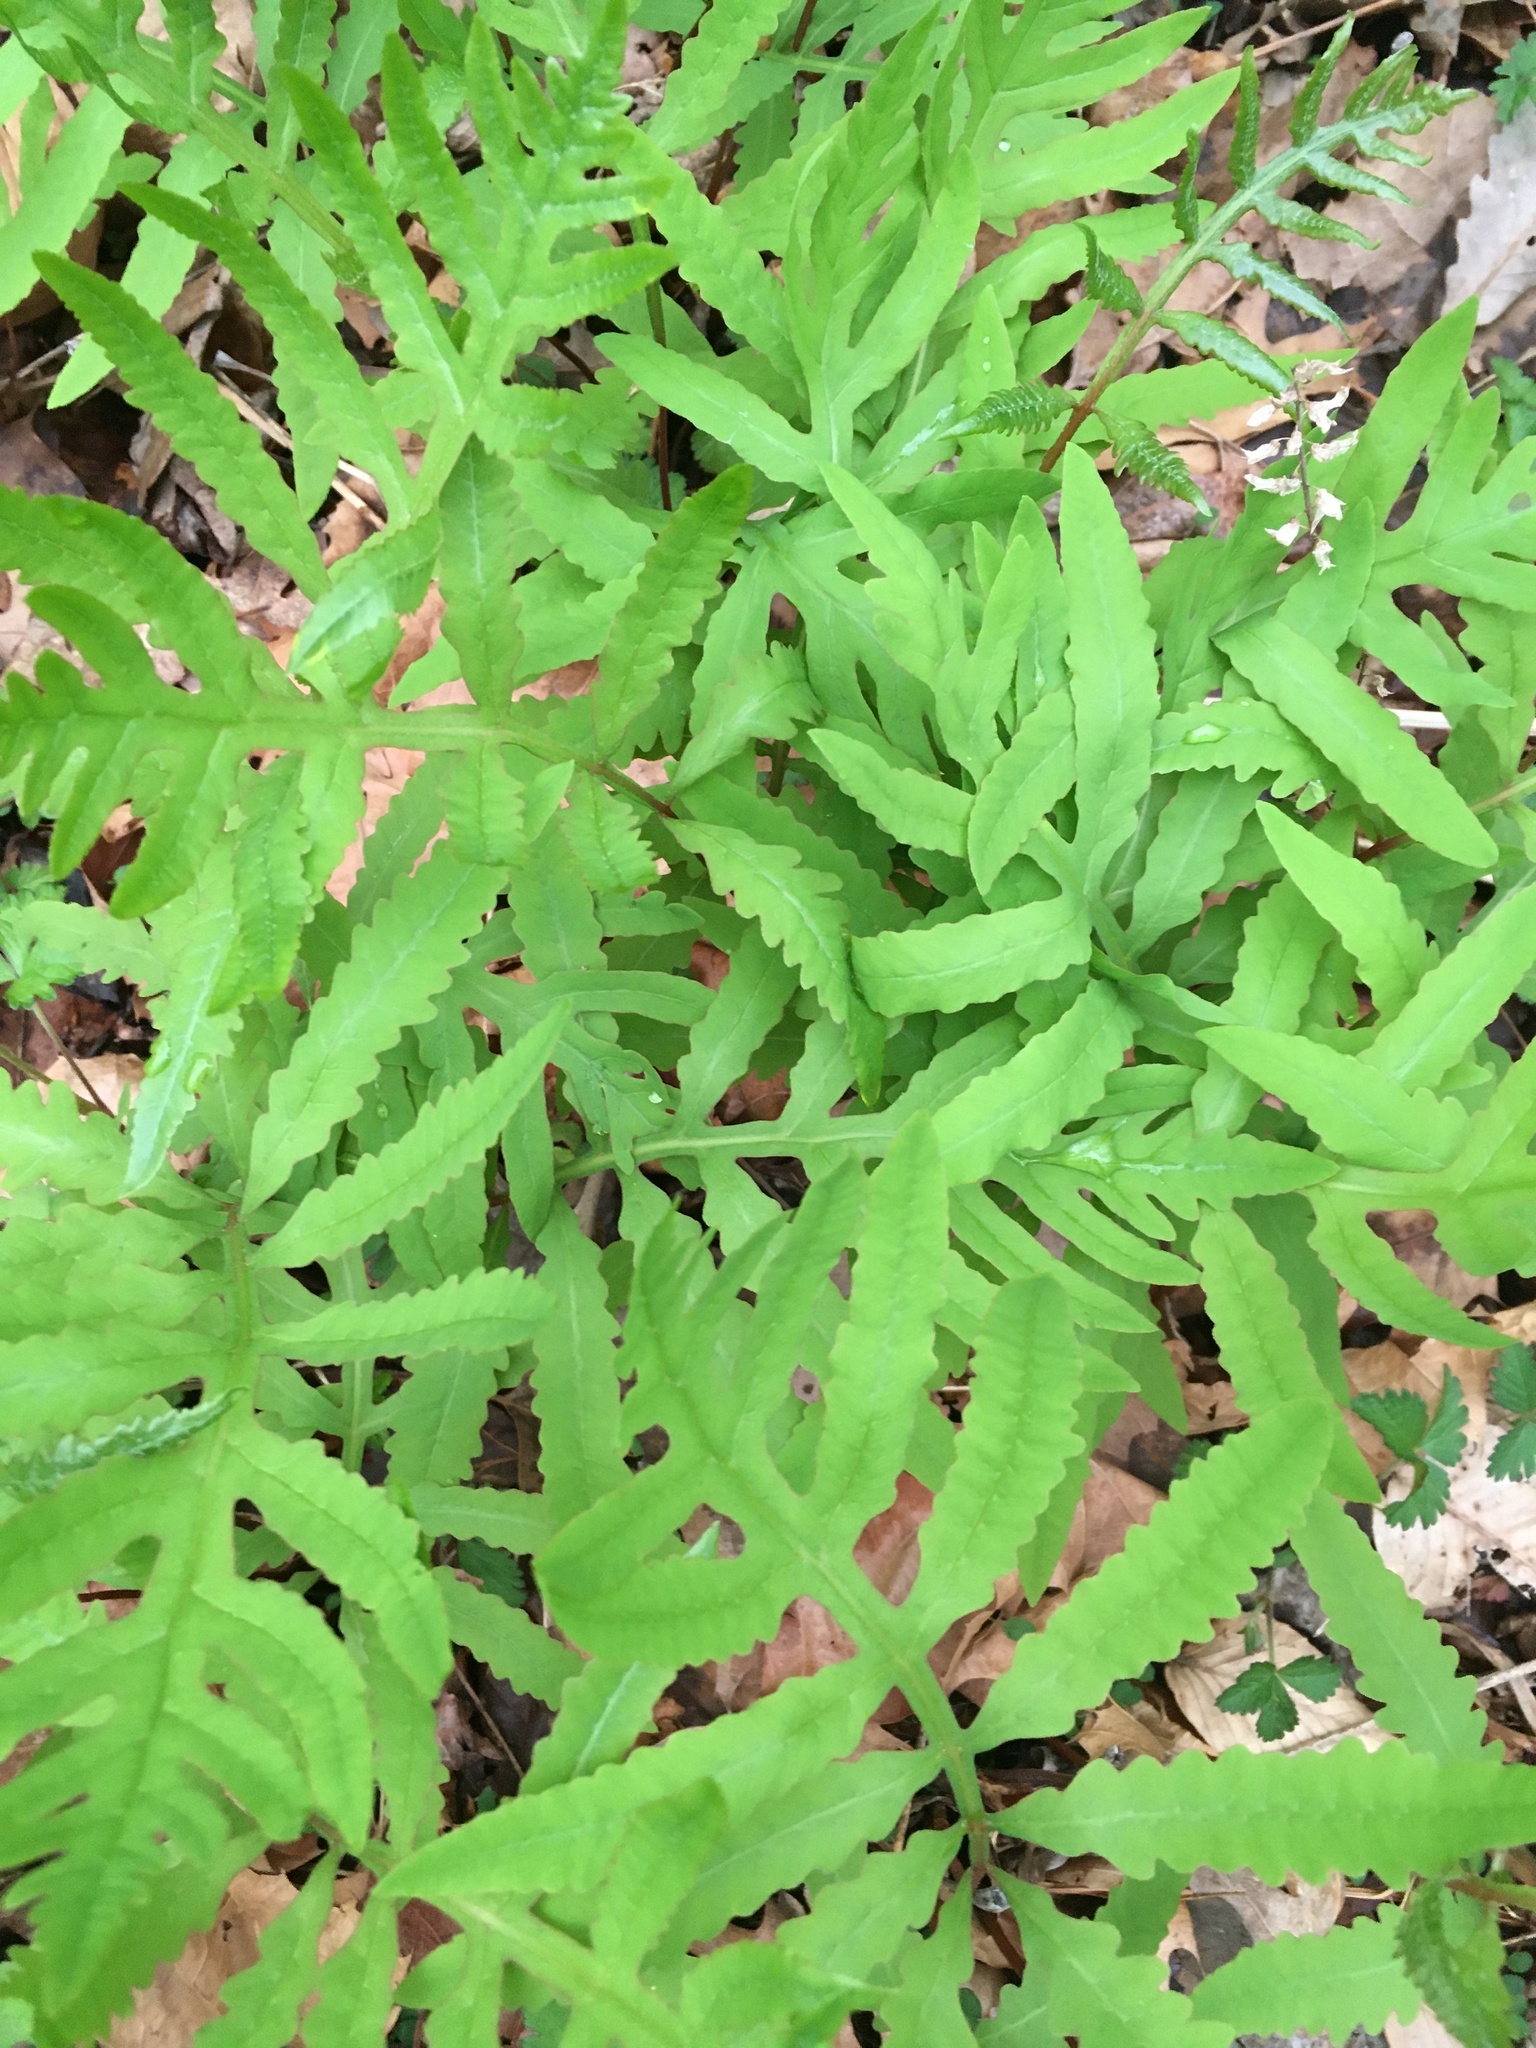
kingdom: Plantae
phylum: Tracheophyta
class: Polypodiopsida
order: Polypodiales
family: Onocleaceae
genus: Onoclea
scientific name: Onoclea sensibilis
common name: Sensitive fern
